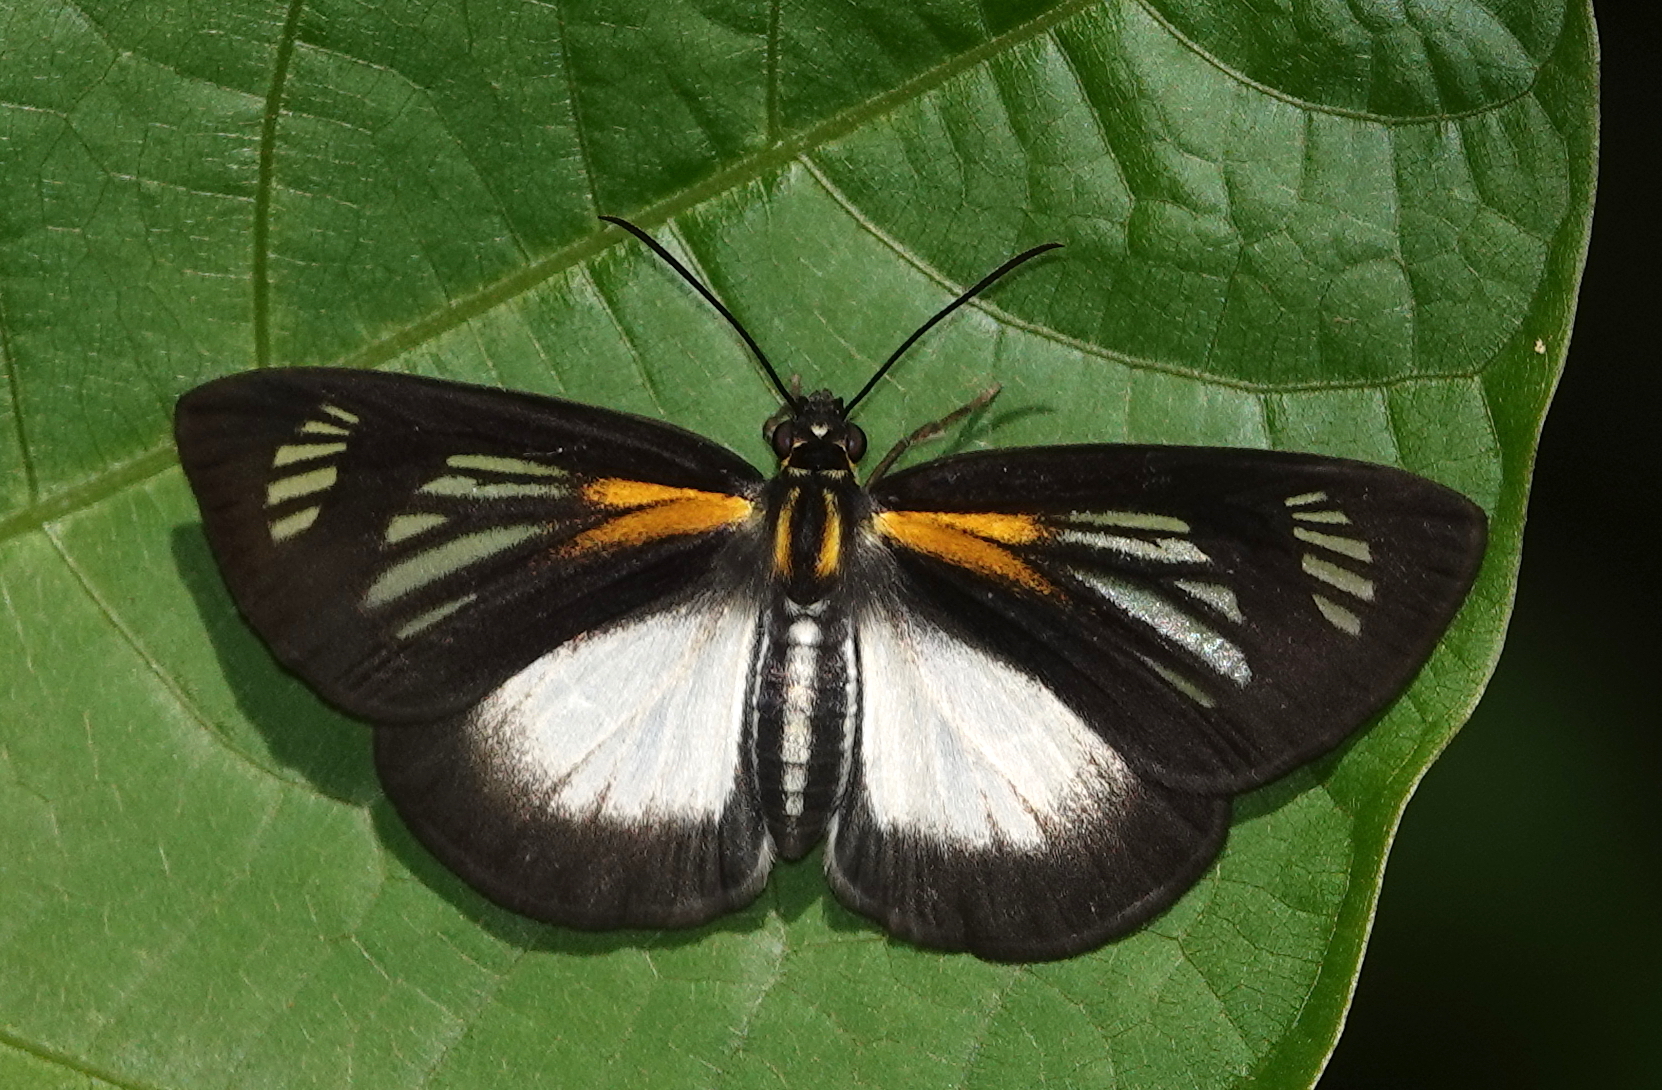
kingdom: Animalia
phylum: Arthropoda
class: Insecta
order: Lepidoptera
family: Hesperiidae
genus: Cabirus
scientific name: Cabirus procas
